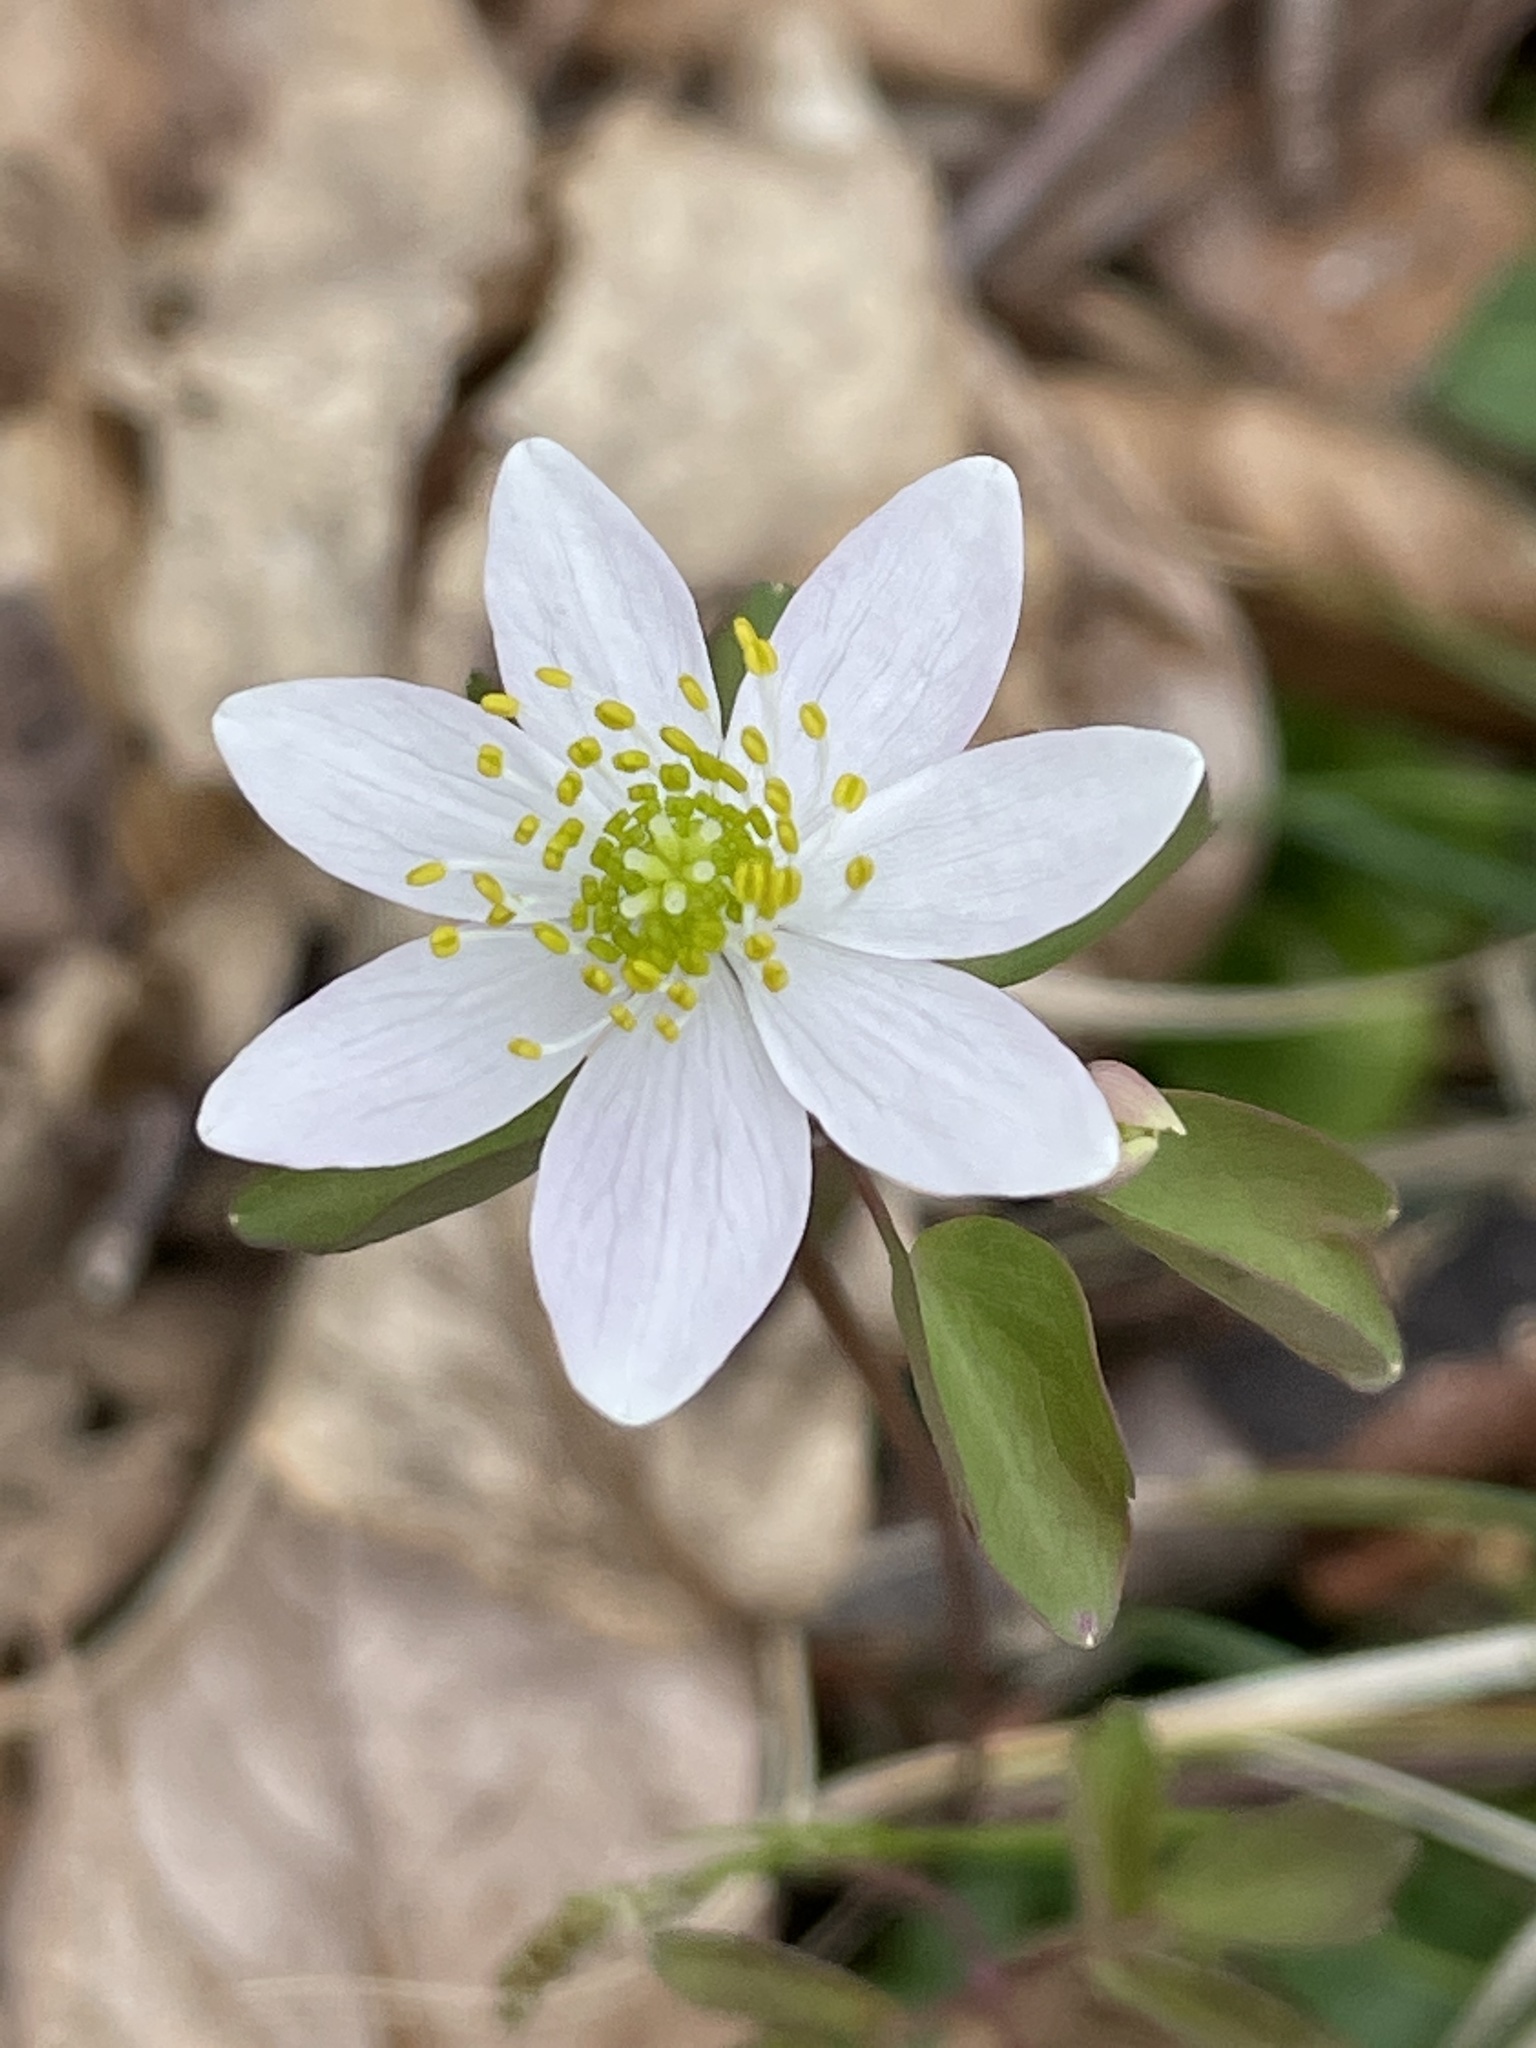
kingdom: Plantae
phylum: Tracheophyta
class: Magnoliopsida
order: Ranunculales
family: Ranunculaceae
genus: Thalictrum
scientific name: Thalictrum thalictroides
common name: Rue-anemone
